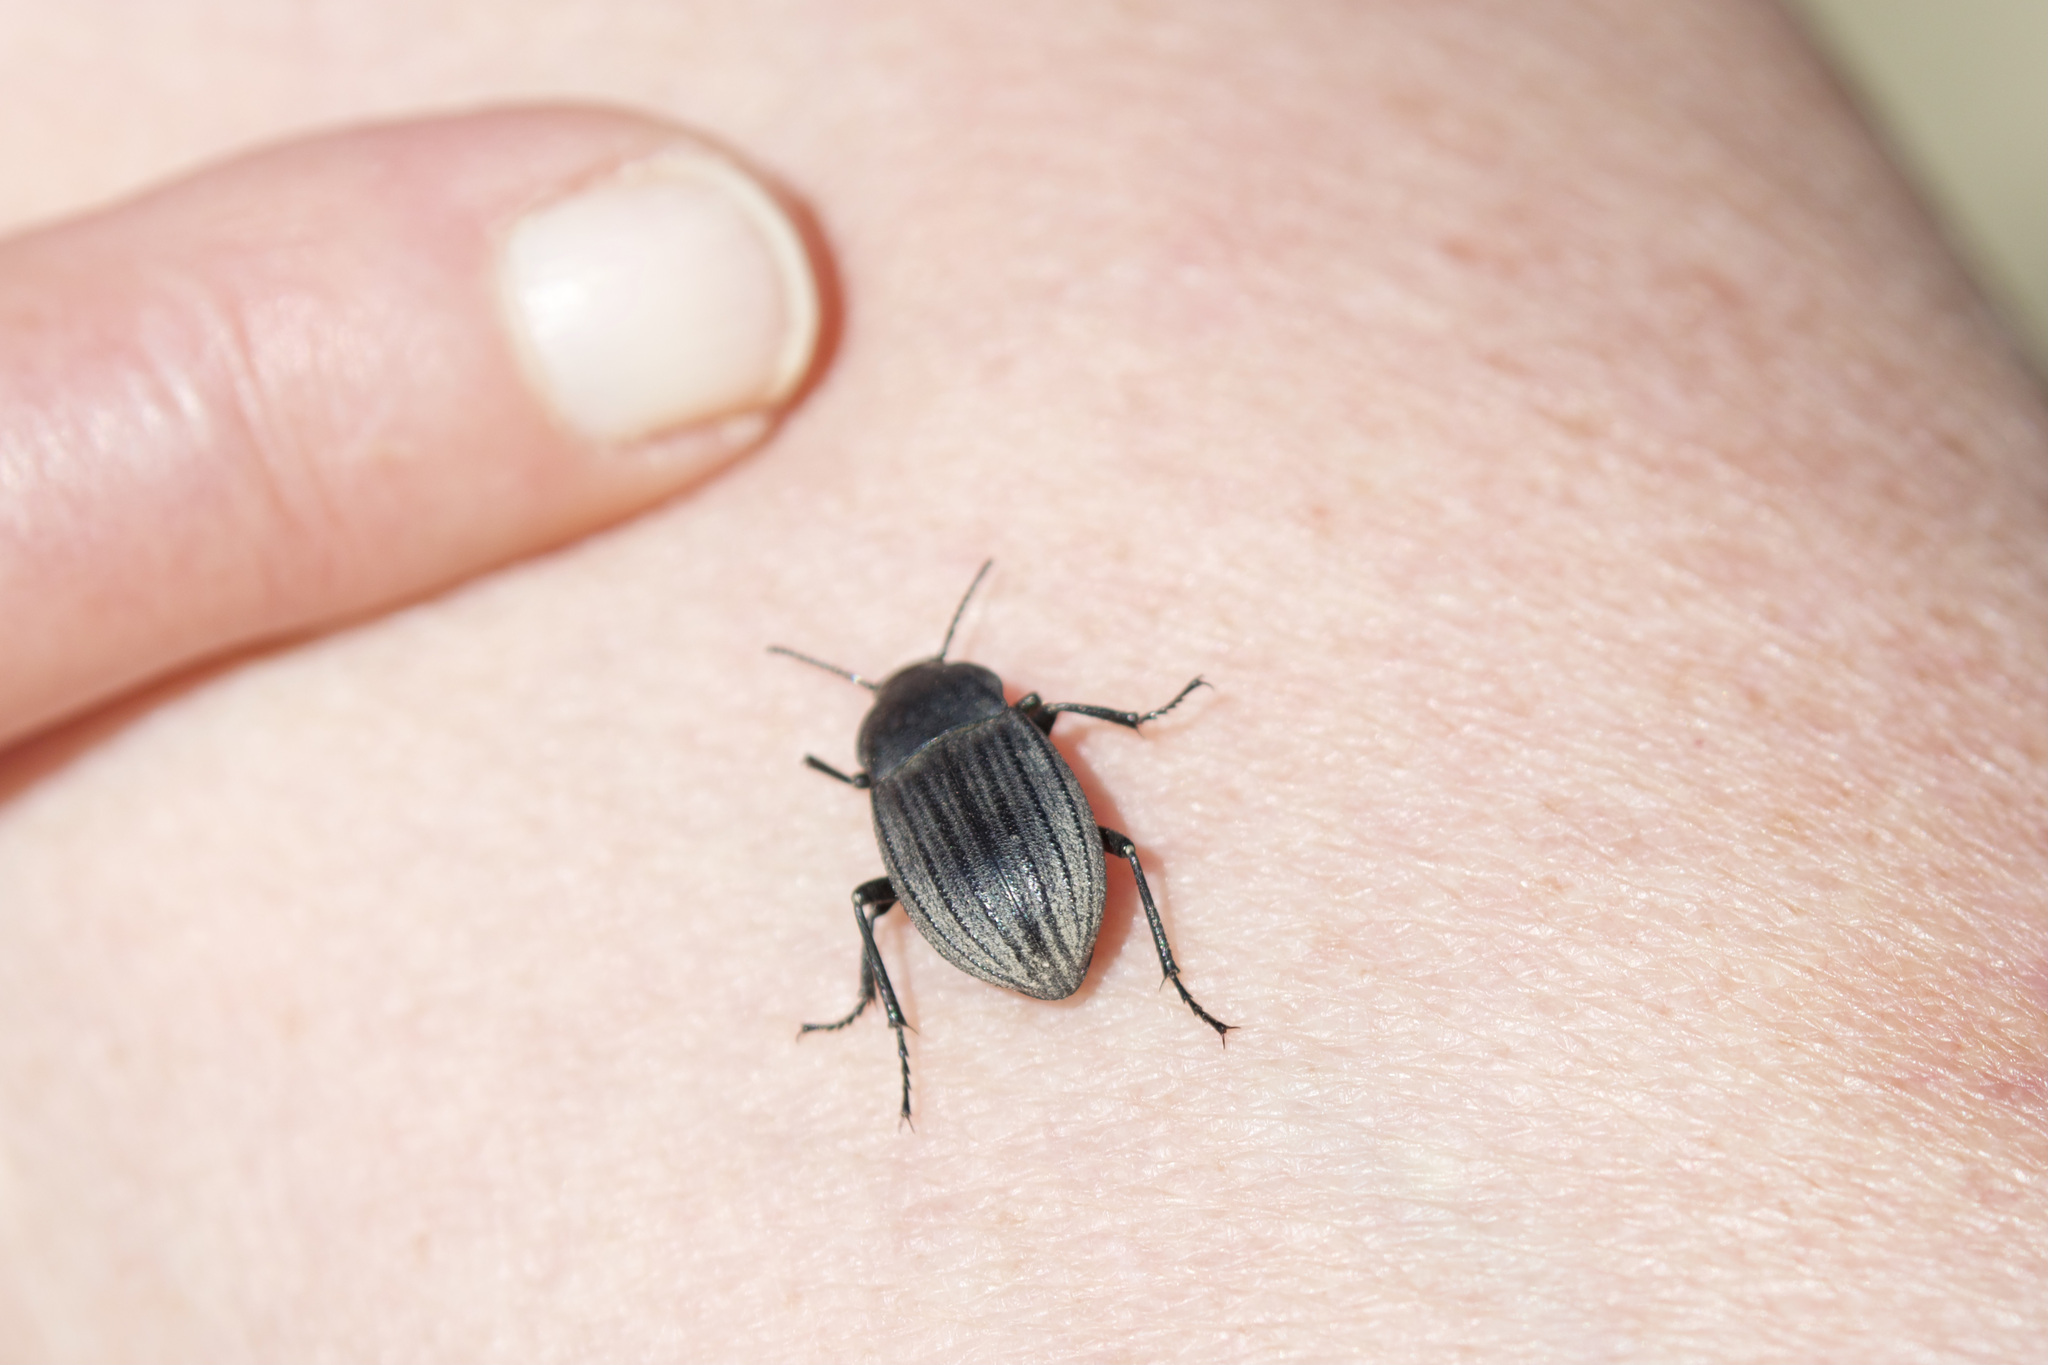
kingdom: Animalia
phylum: Arthropoda
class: Insecta
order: Coleoptera
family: Tenebrionidae
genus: Eleodes
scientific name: Eleodes tricostata
